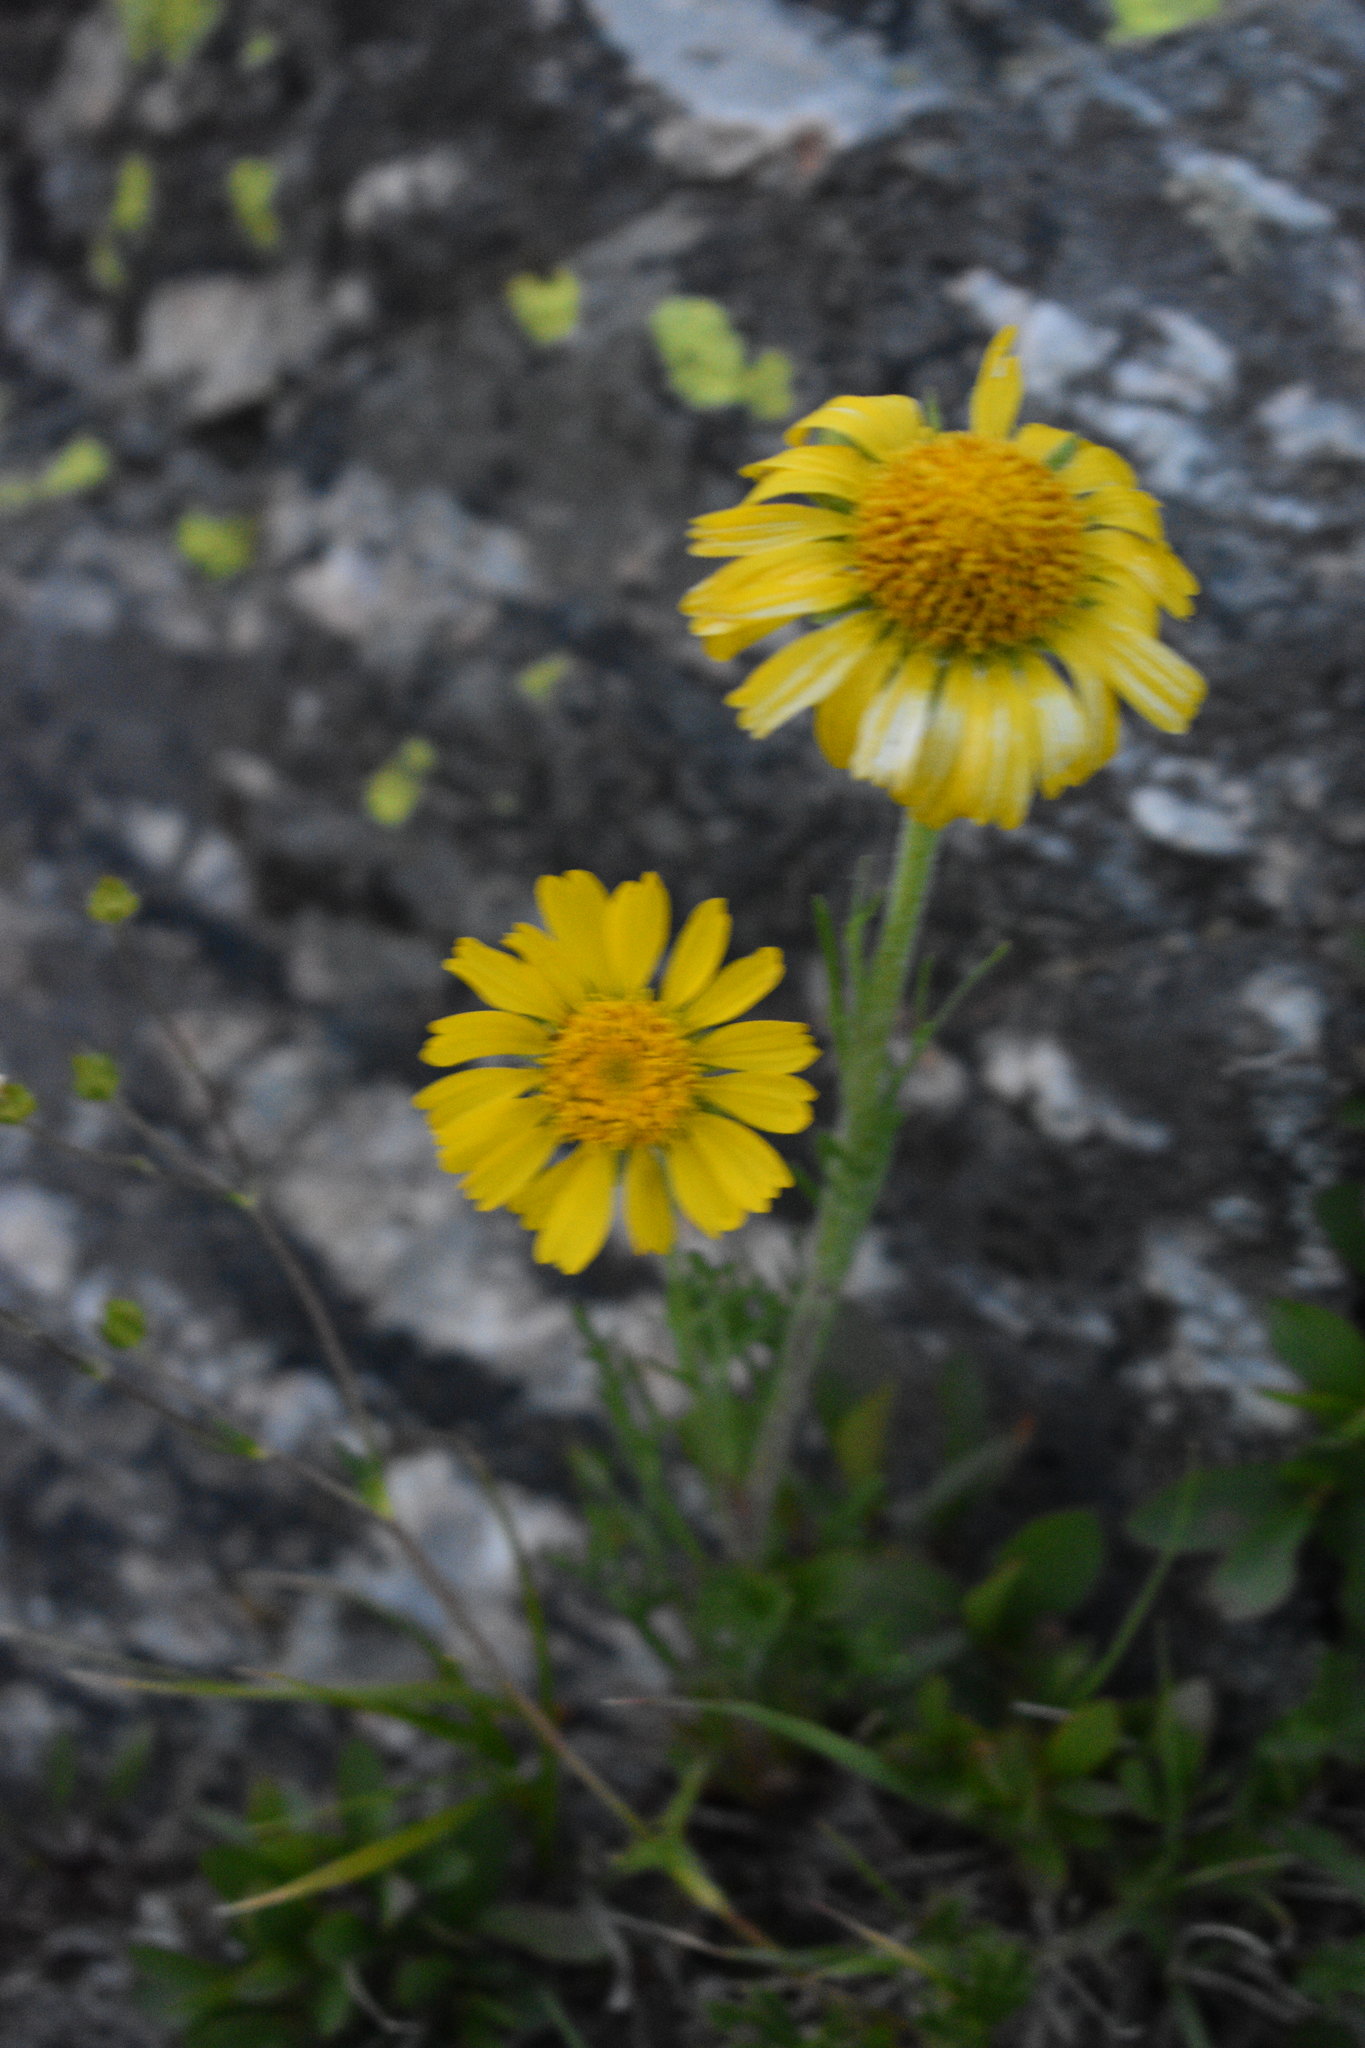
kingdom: Plantae
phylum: Tracheophyta
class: Magnoliopsida
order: Asterales
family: Asteraceae
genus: Hymenoxys
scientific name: Hymenoxys grandiflora
